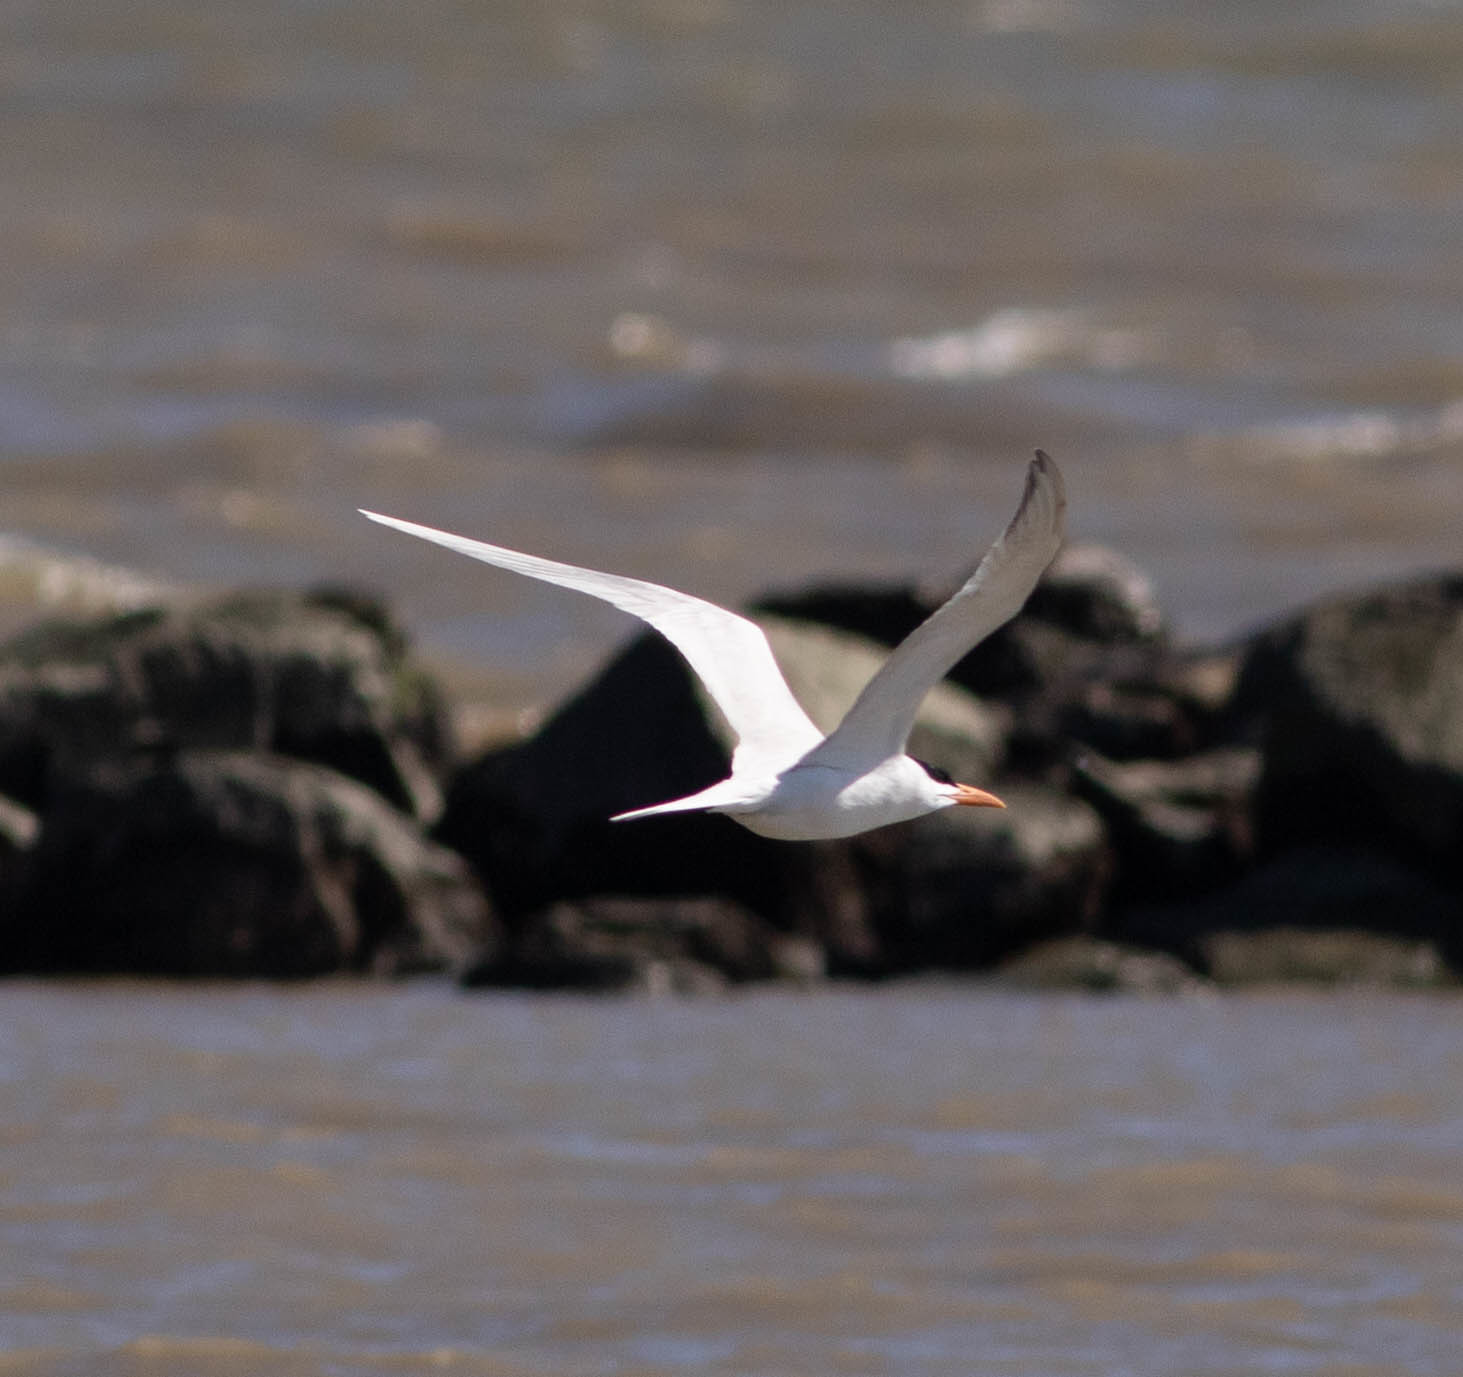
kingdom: Animalia
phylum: Chordata
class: Aves
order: Charadriiformes
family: Laridae
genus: Thalasseus
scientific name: Thalasseus maximus
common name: Royal tern
